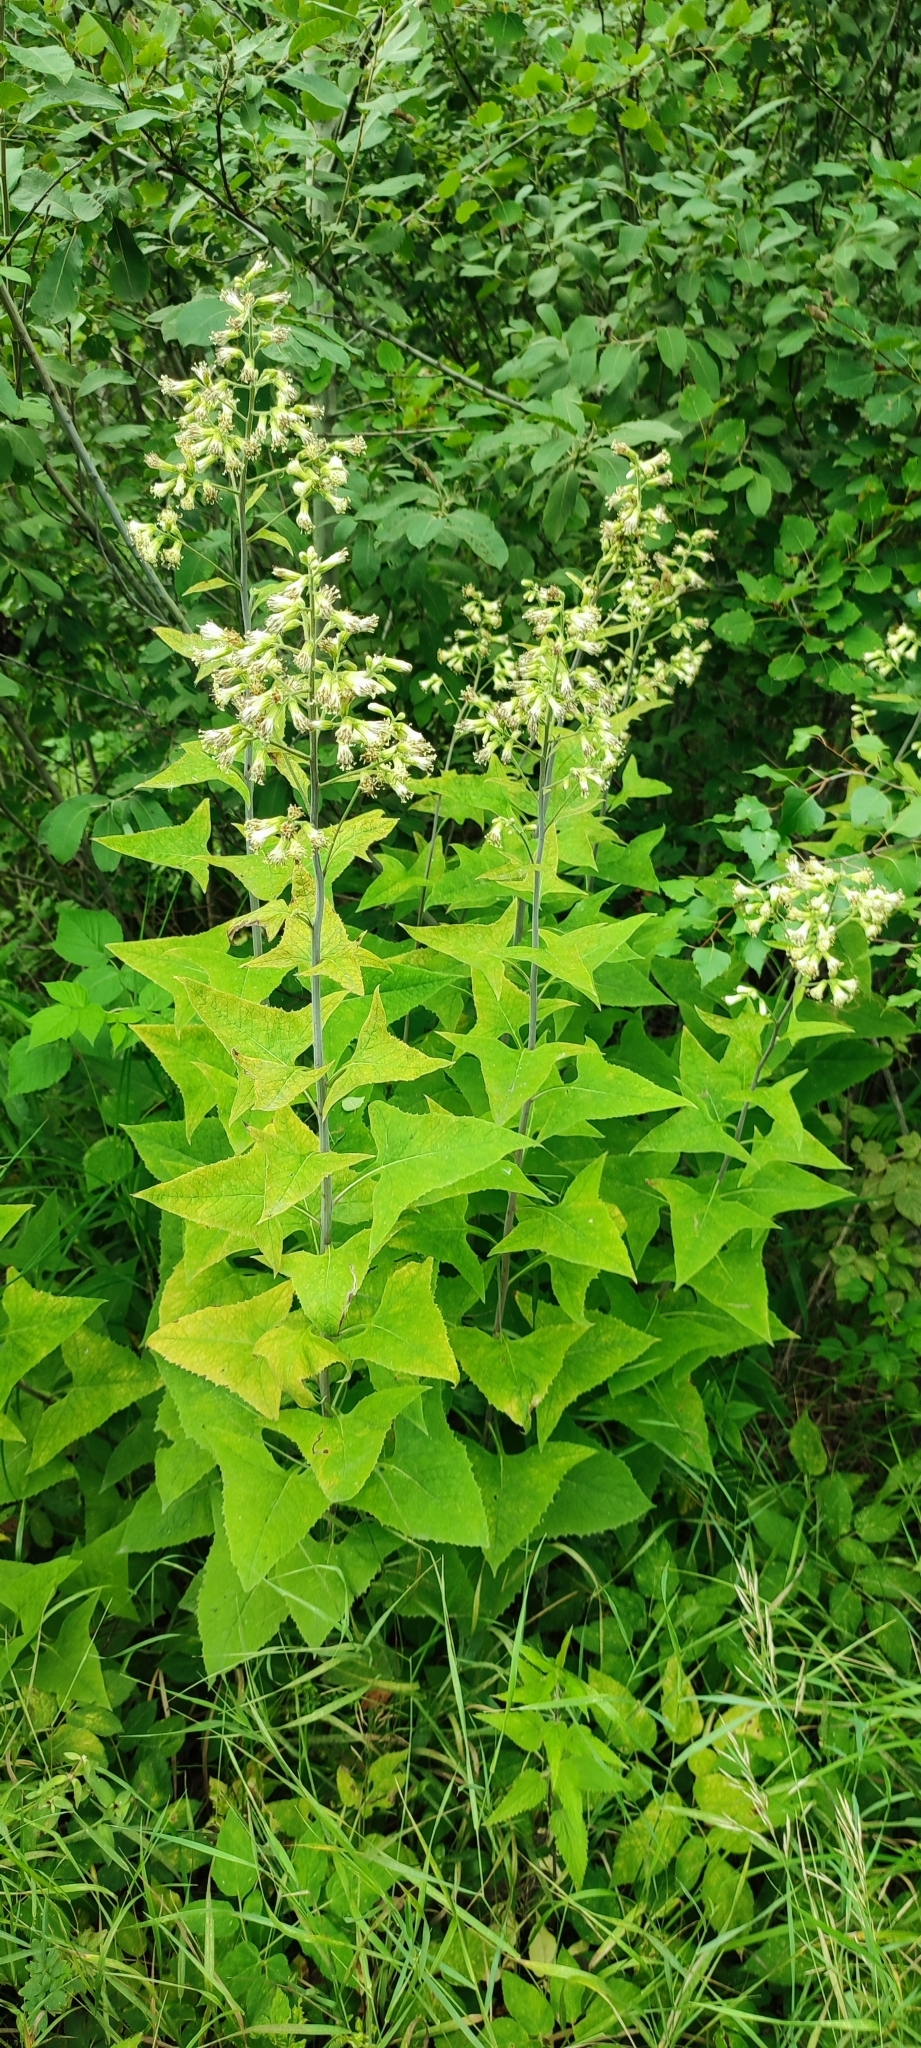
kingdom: Plantae
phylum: Tracheophyta
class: Magnoliopsida
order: Asterales
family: Asteraceae
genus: Parasenecio
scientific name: Parasenecio hastatus
